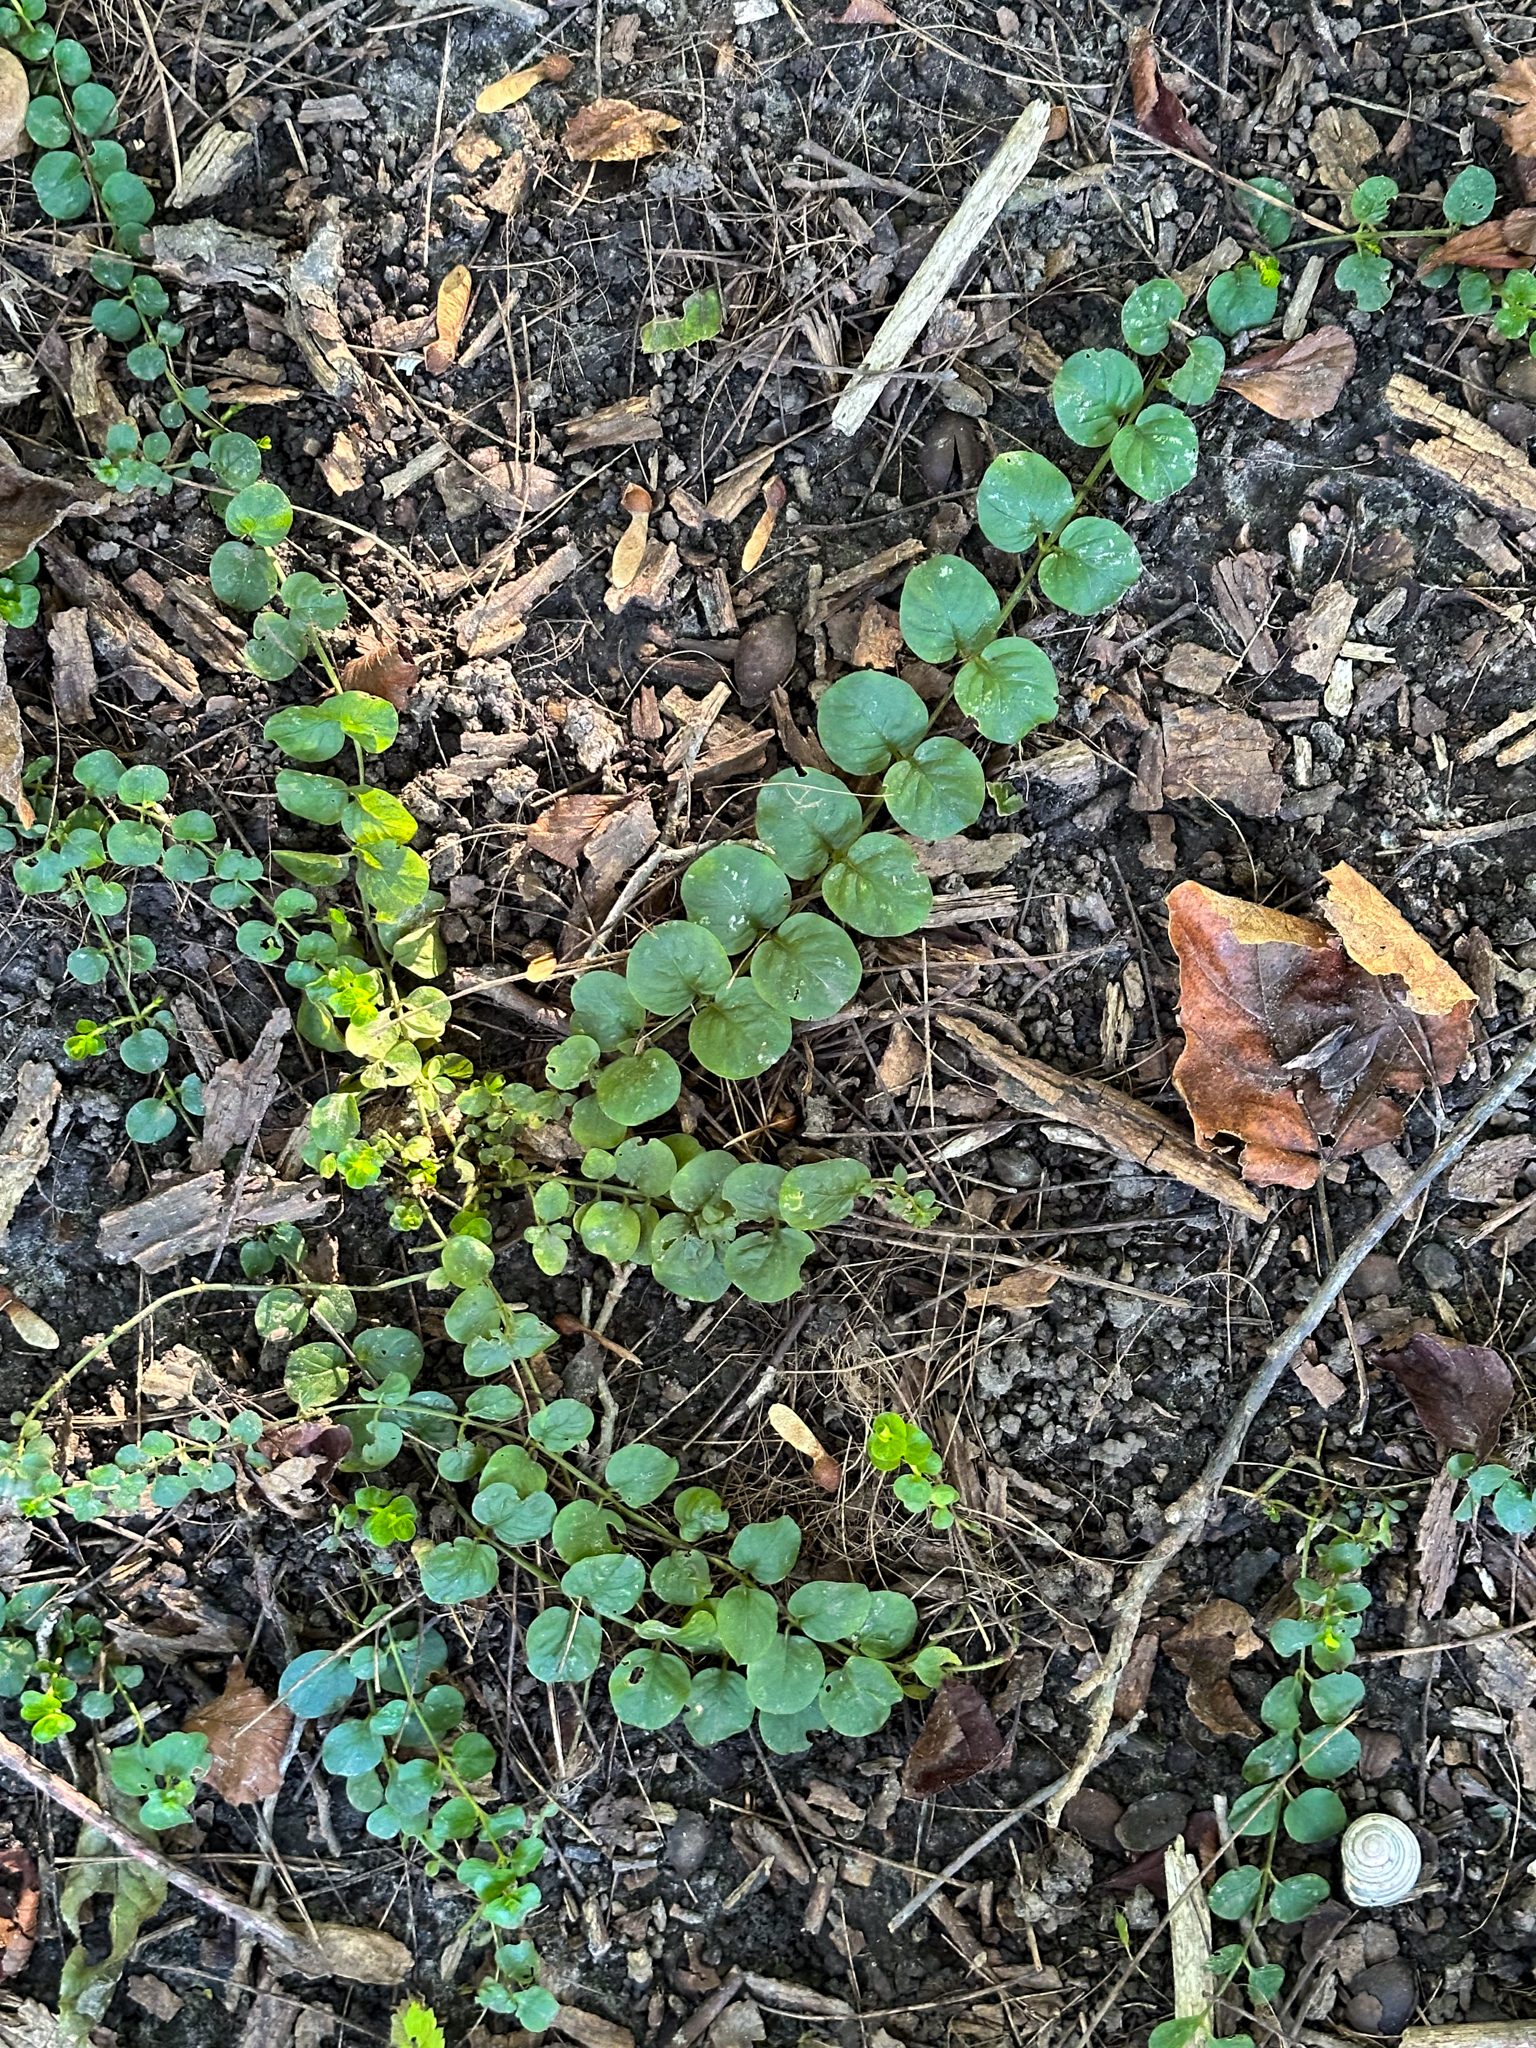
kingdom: Plantae
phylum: Tracheophyta
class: Magnoliopsida
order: Ericales
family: Primulaceae
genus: Lysimachia
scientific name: Lysimachia nummularia
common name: Moneywort
